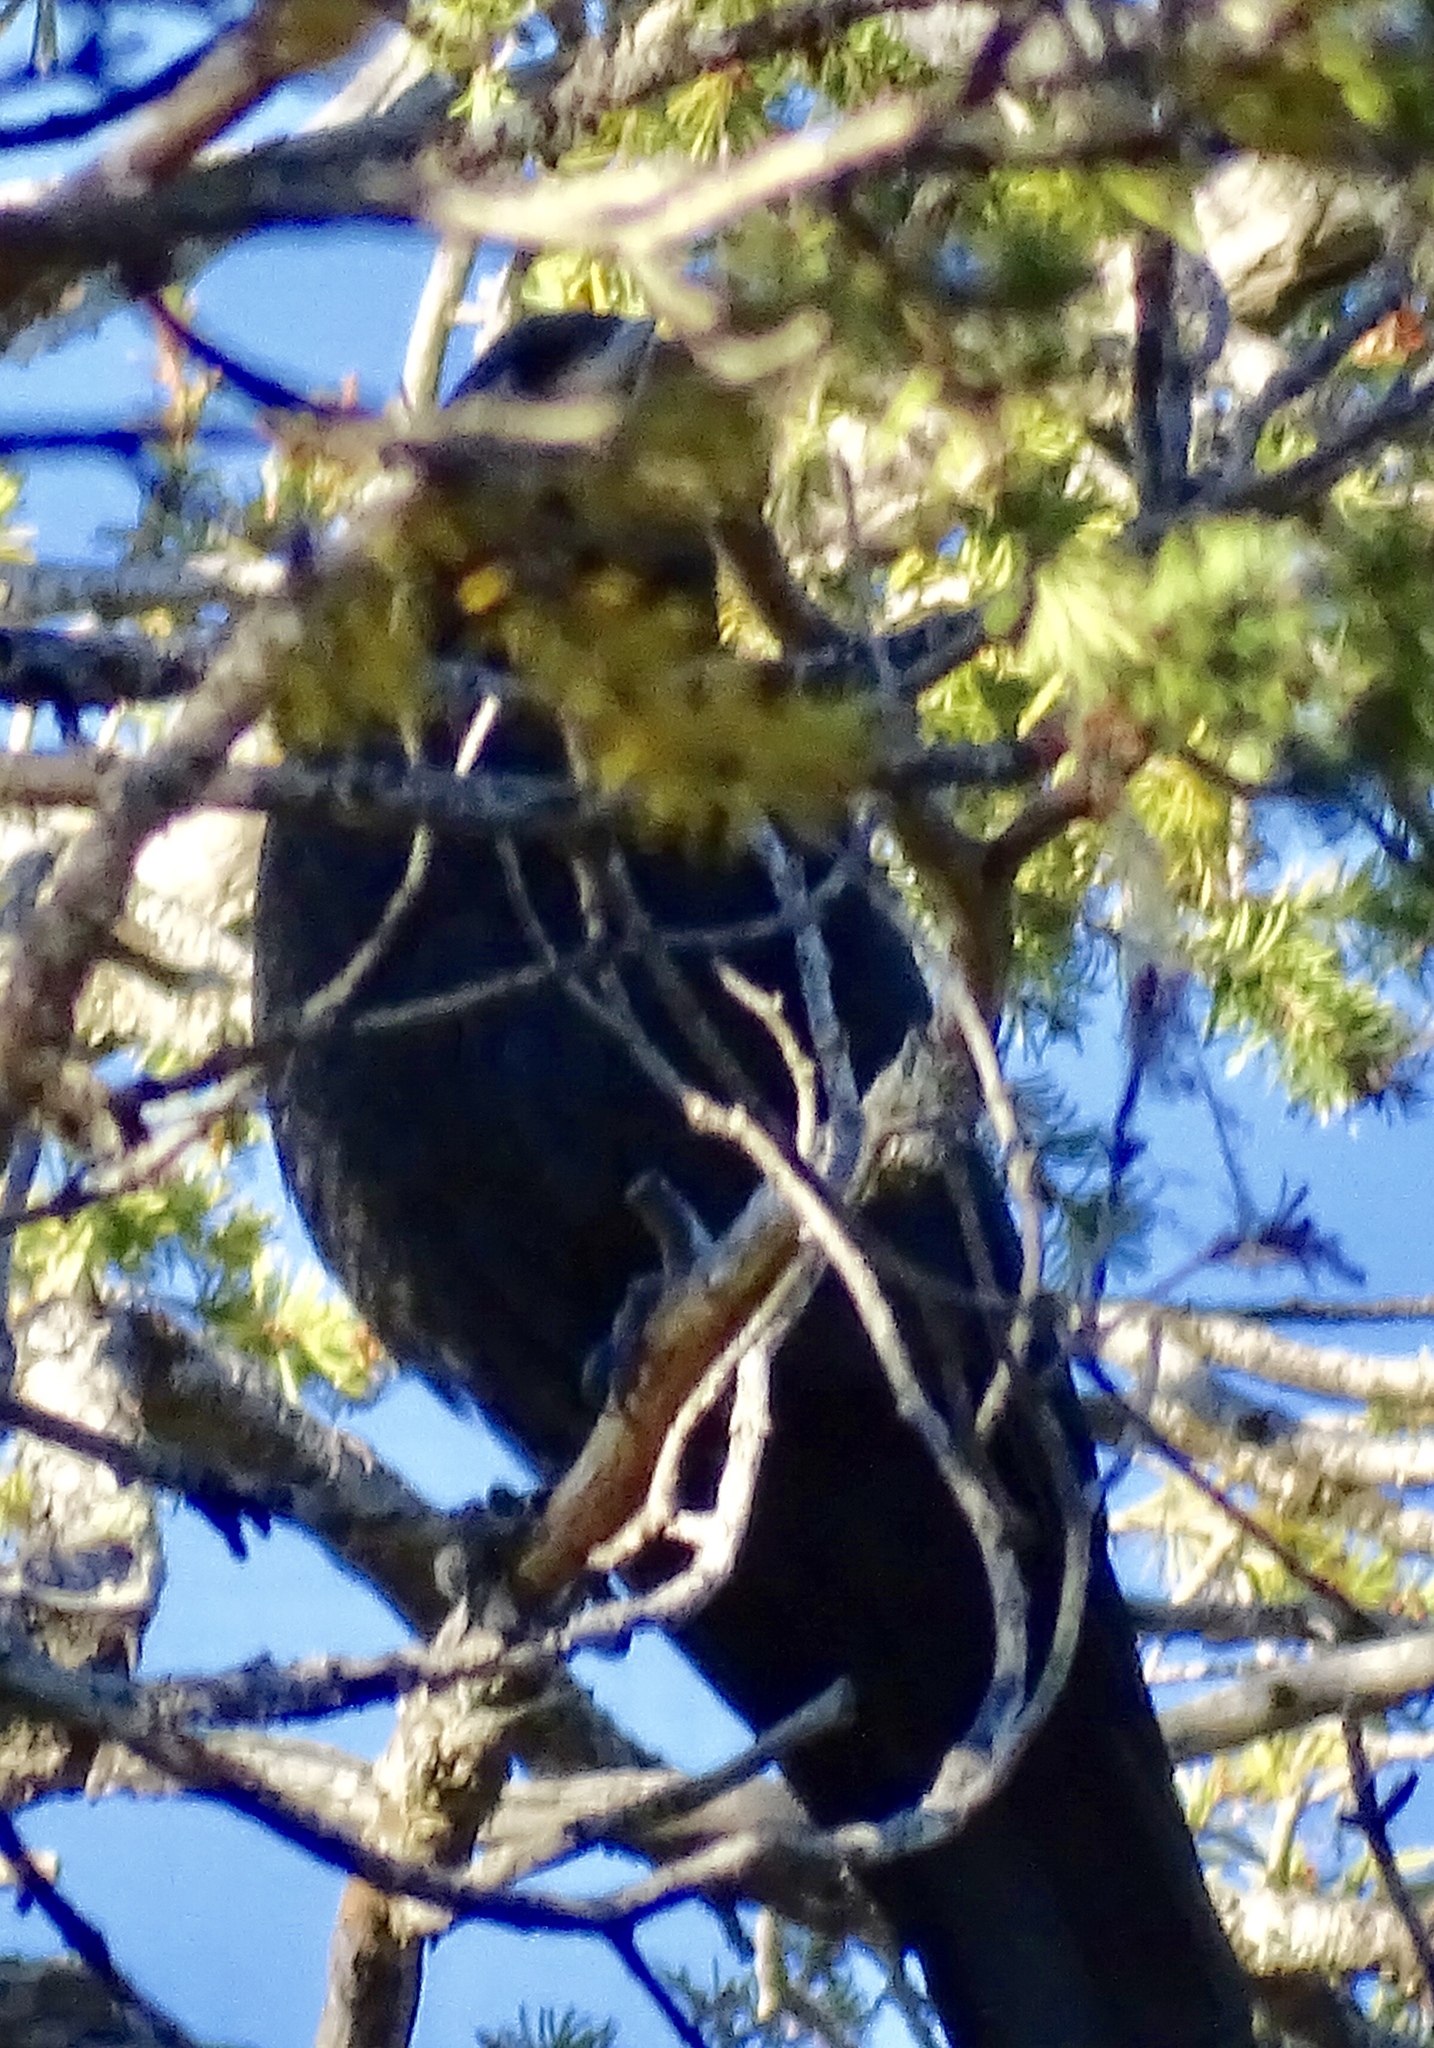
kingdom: Animalia
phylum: Chordata
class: Aves
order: Passeriformes
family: Corvidae
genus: Corvus
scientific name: Corvus corax
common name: Common raven
